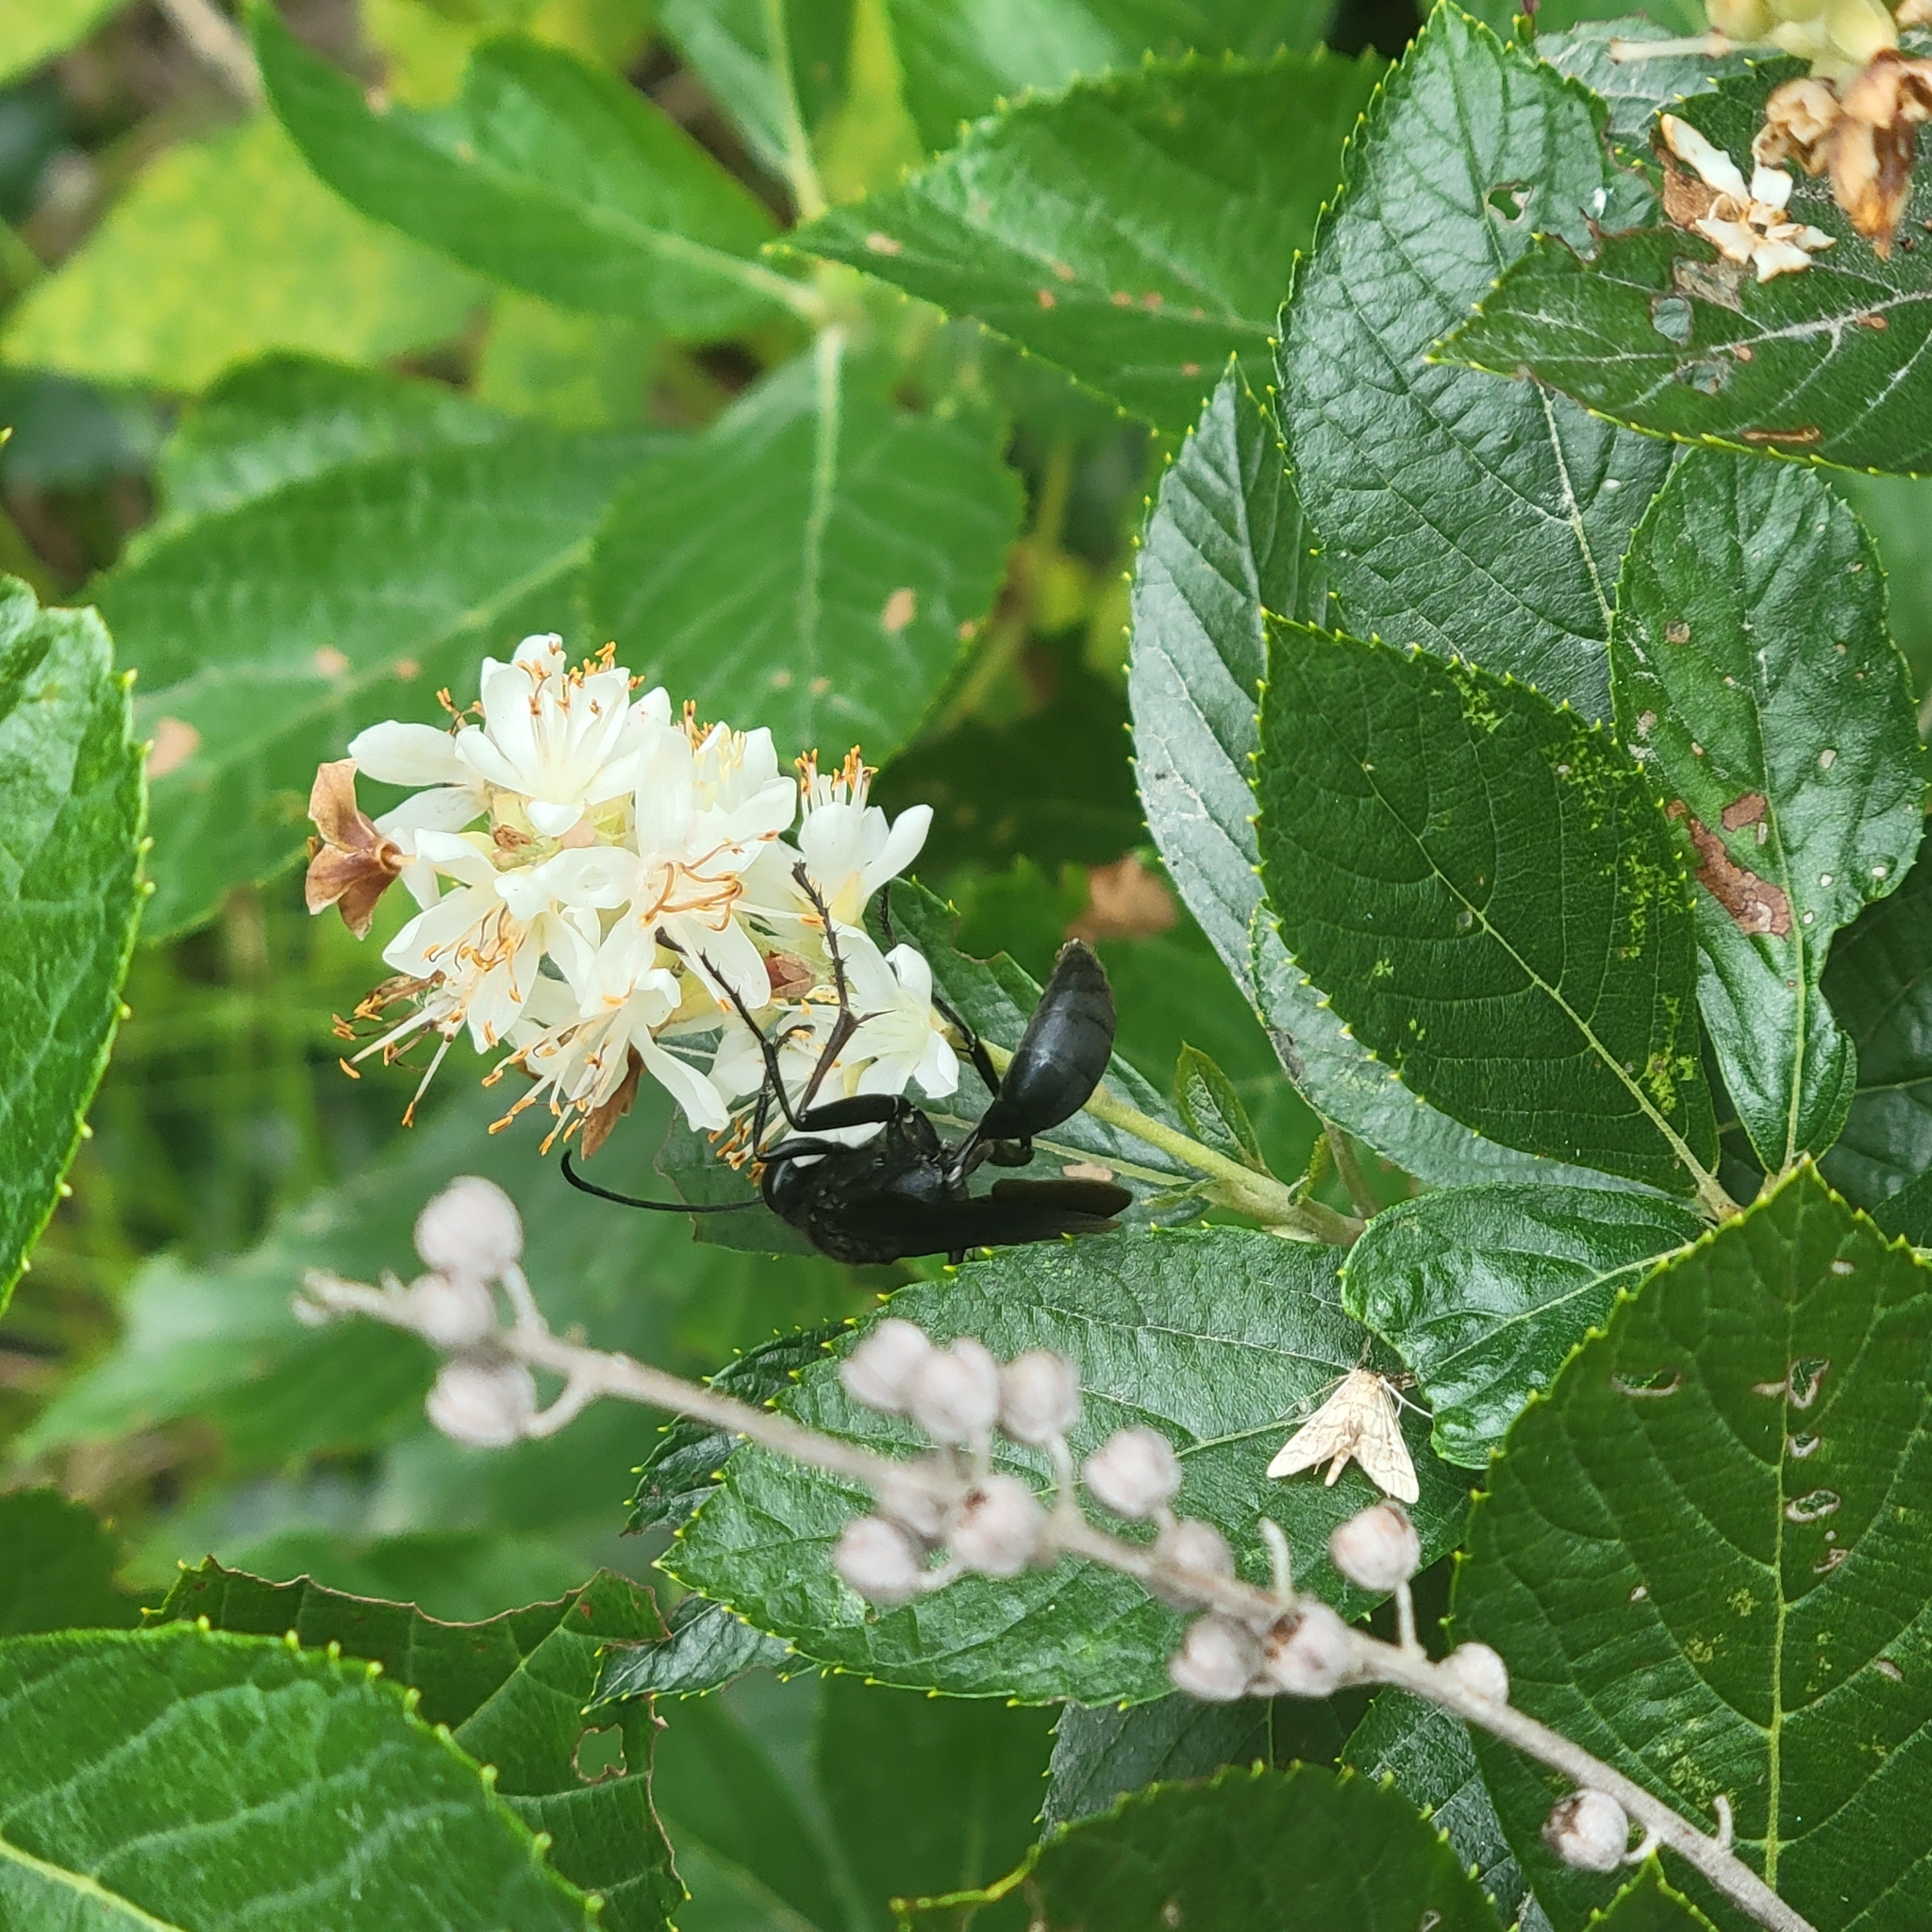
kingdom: Animalia
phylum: Arthropoda
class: Insecta
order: Hymenoptera
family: Sphecidae
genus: Sphex
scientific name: Sphex pensylvanicus
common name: Great black digger wasp
